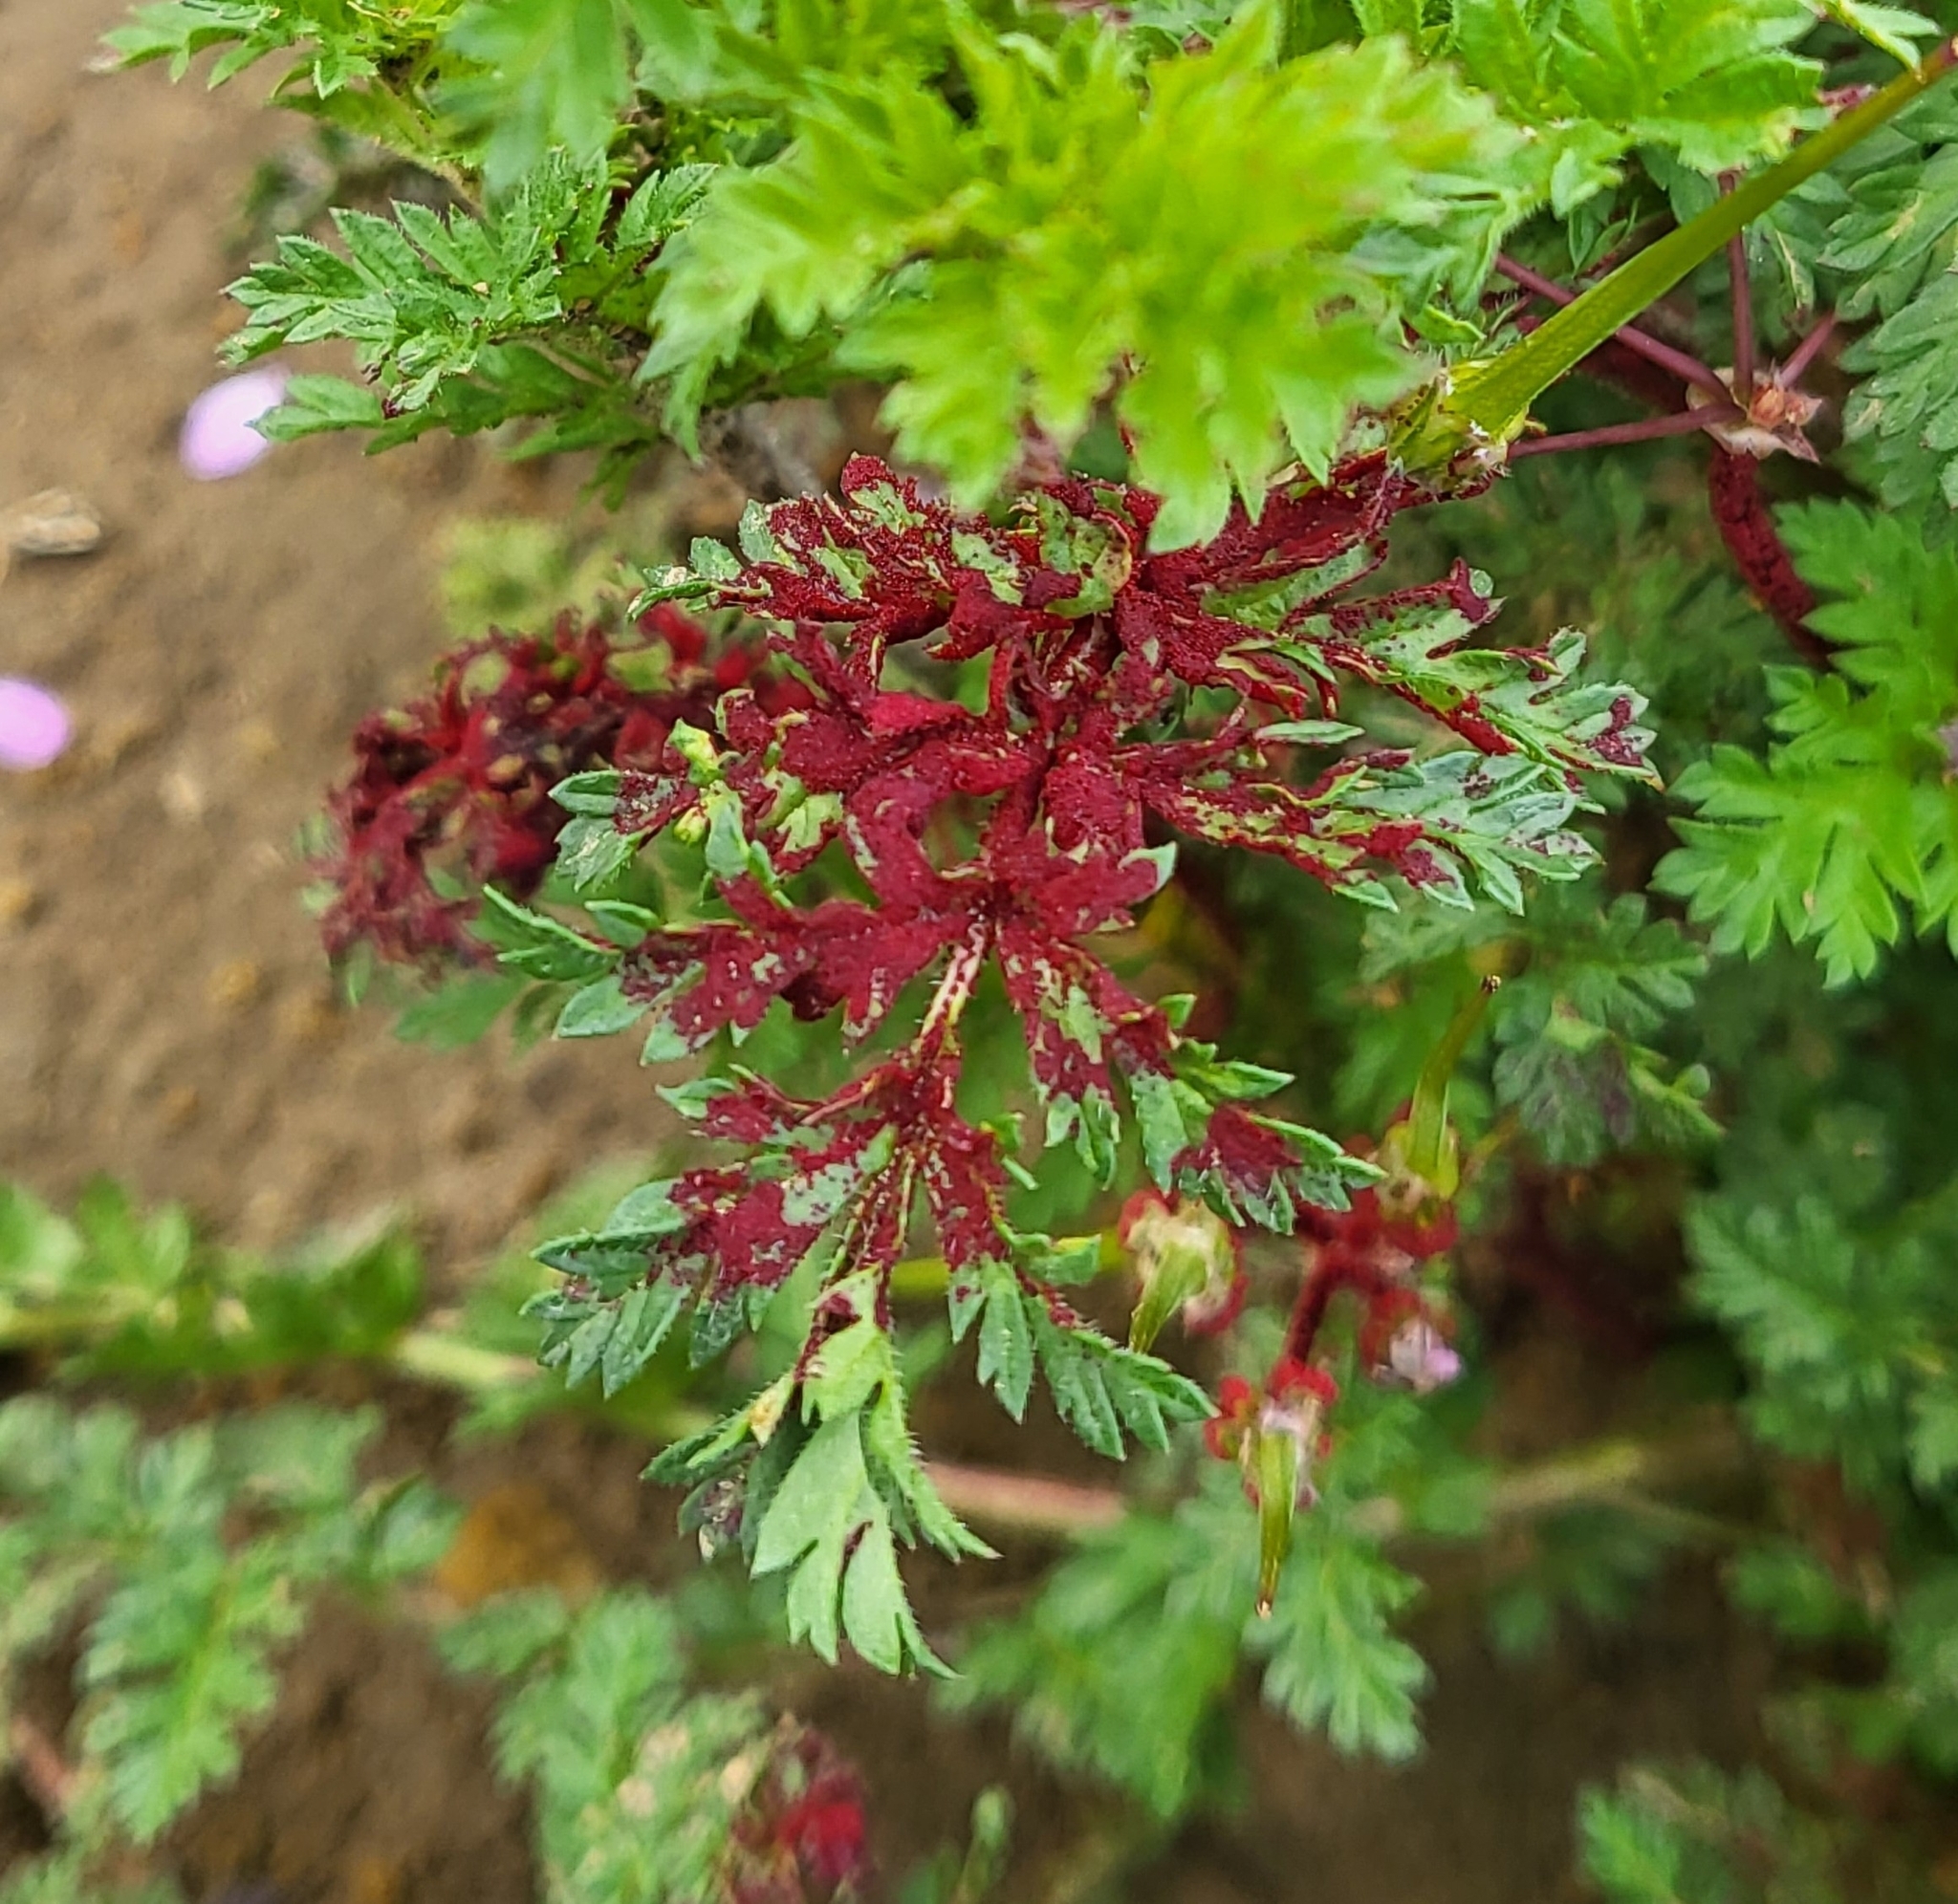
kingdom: Fungi
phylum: Chytridiomycota
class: Chytridiomycetes
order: Chytridiales
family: Synchytriaceae
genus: Synchytrium
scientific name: Synchytrium papillatum
